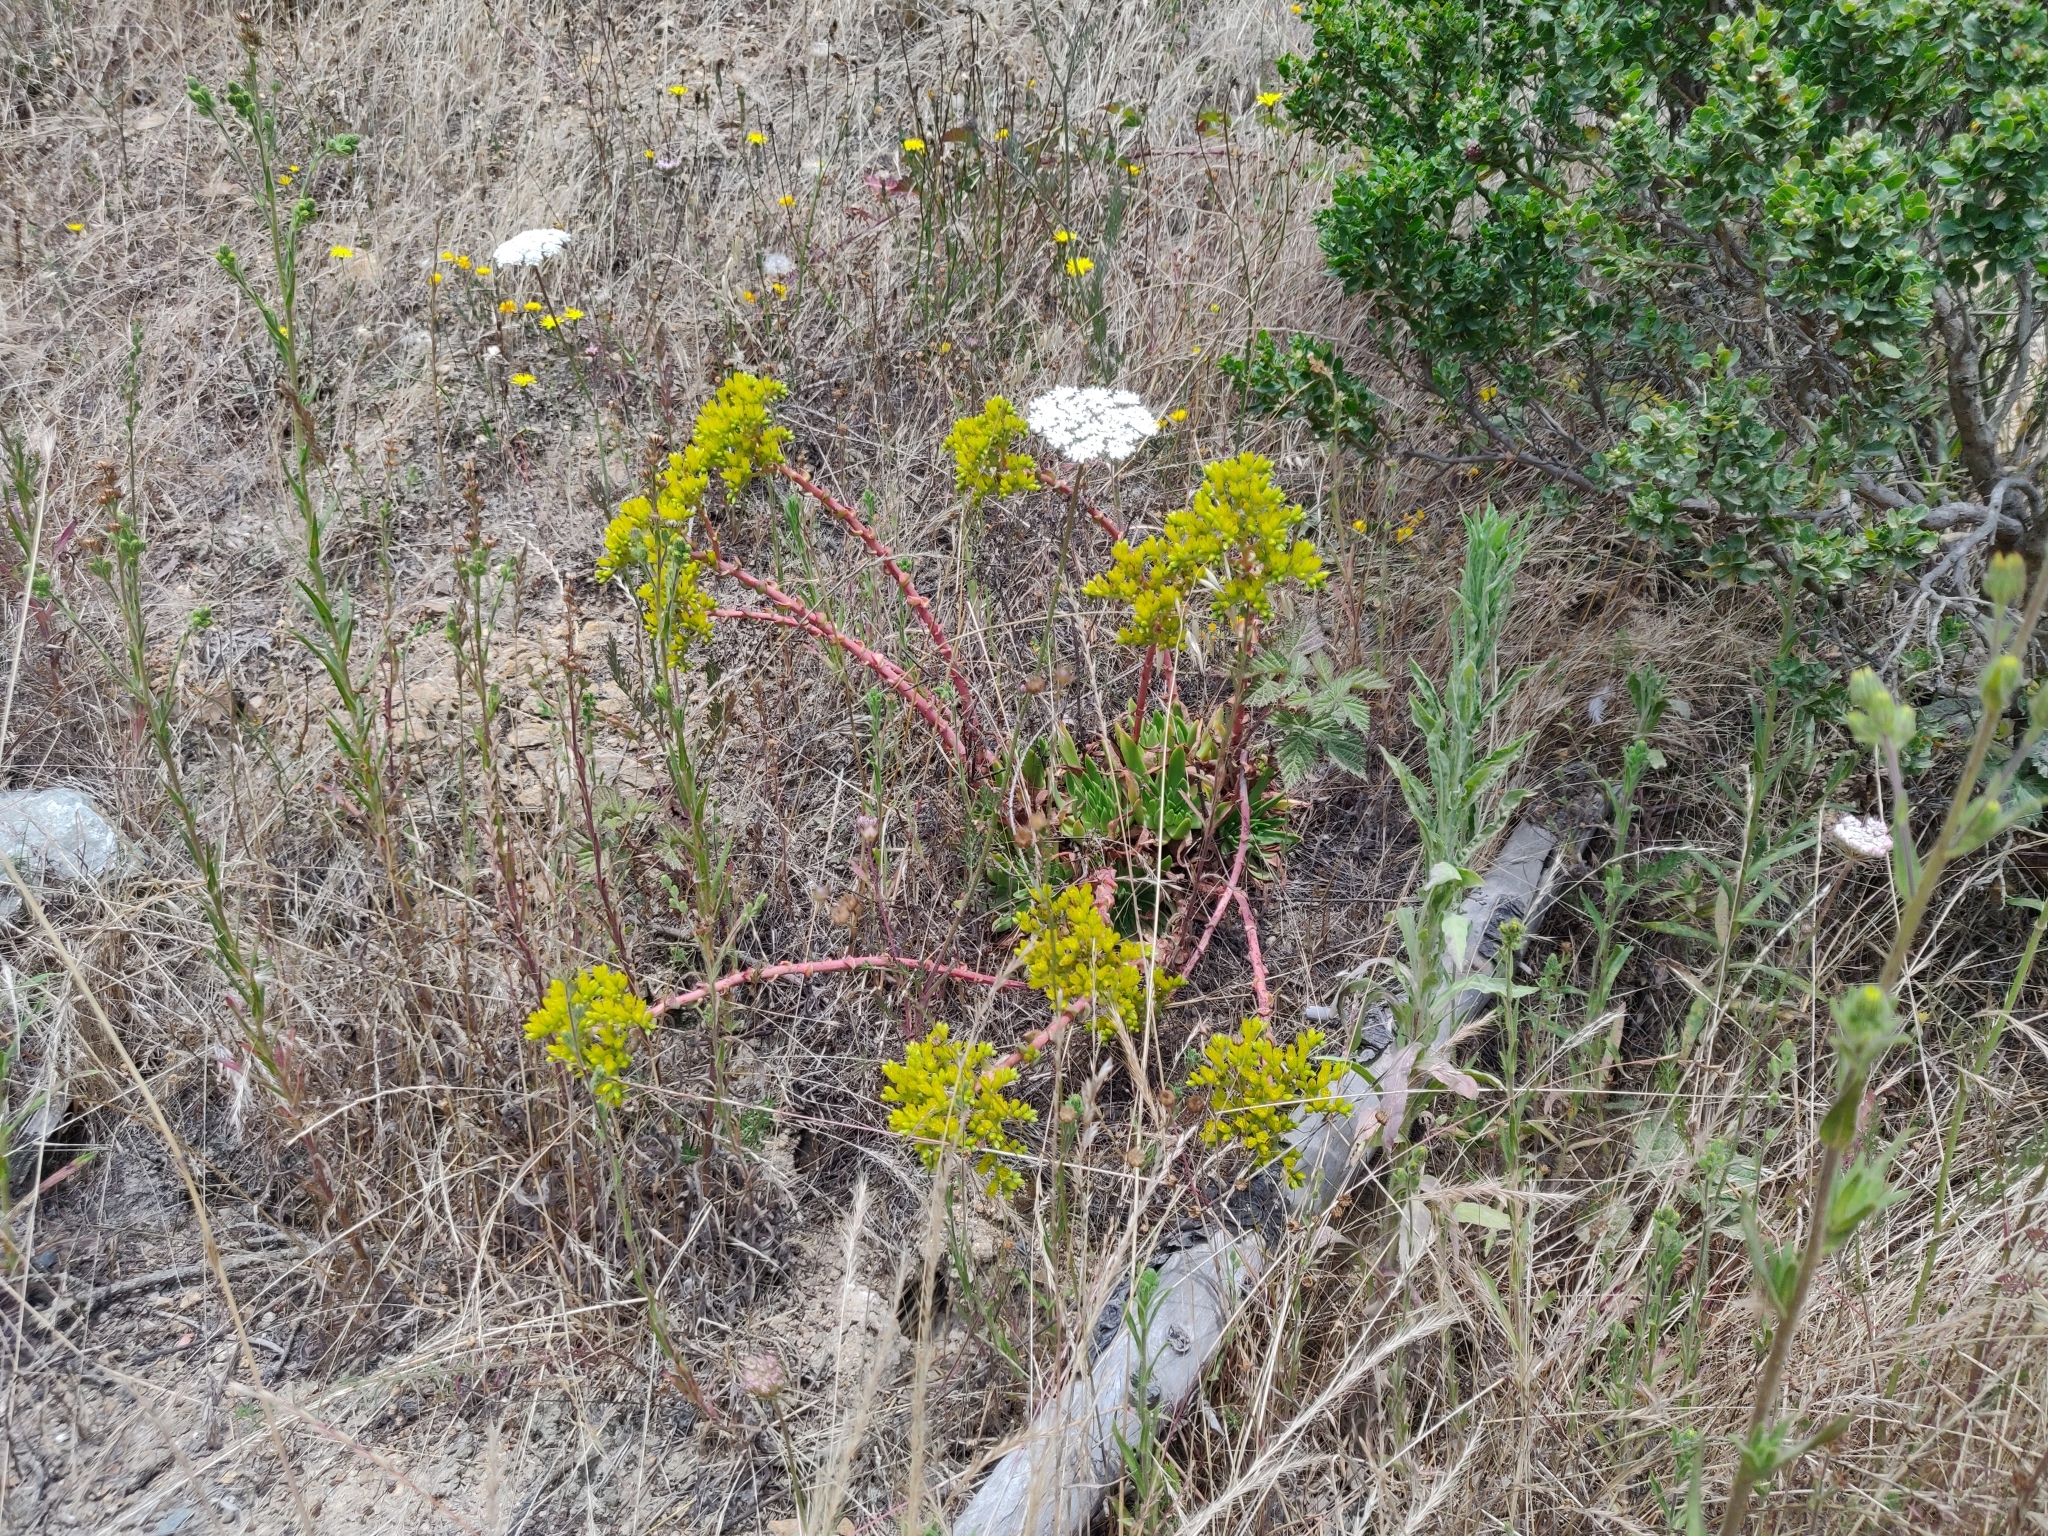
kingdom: Plantae
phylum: Tracheophyta
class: Magnoliopsida
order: Saxifragales
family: Crassulaceae
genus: Dudleya
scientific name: Dudleya caespitosa
